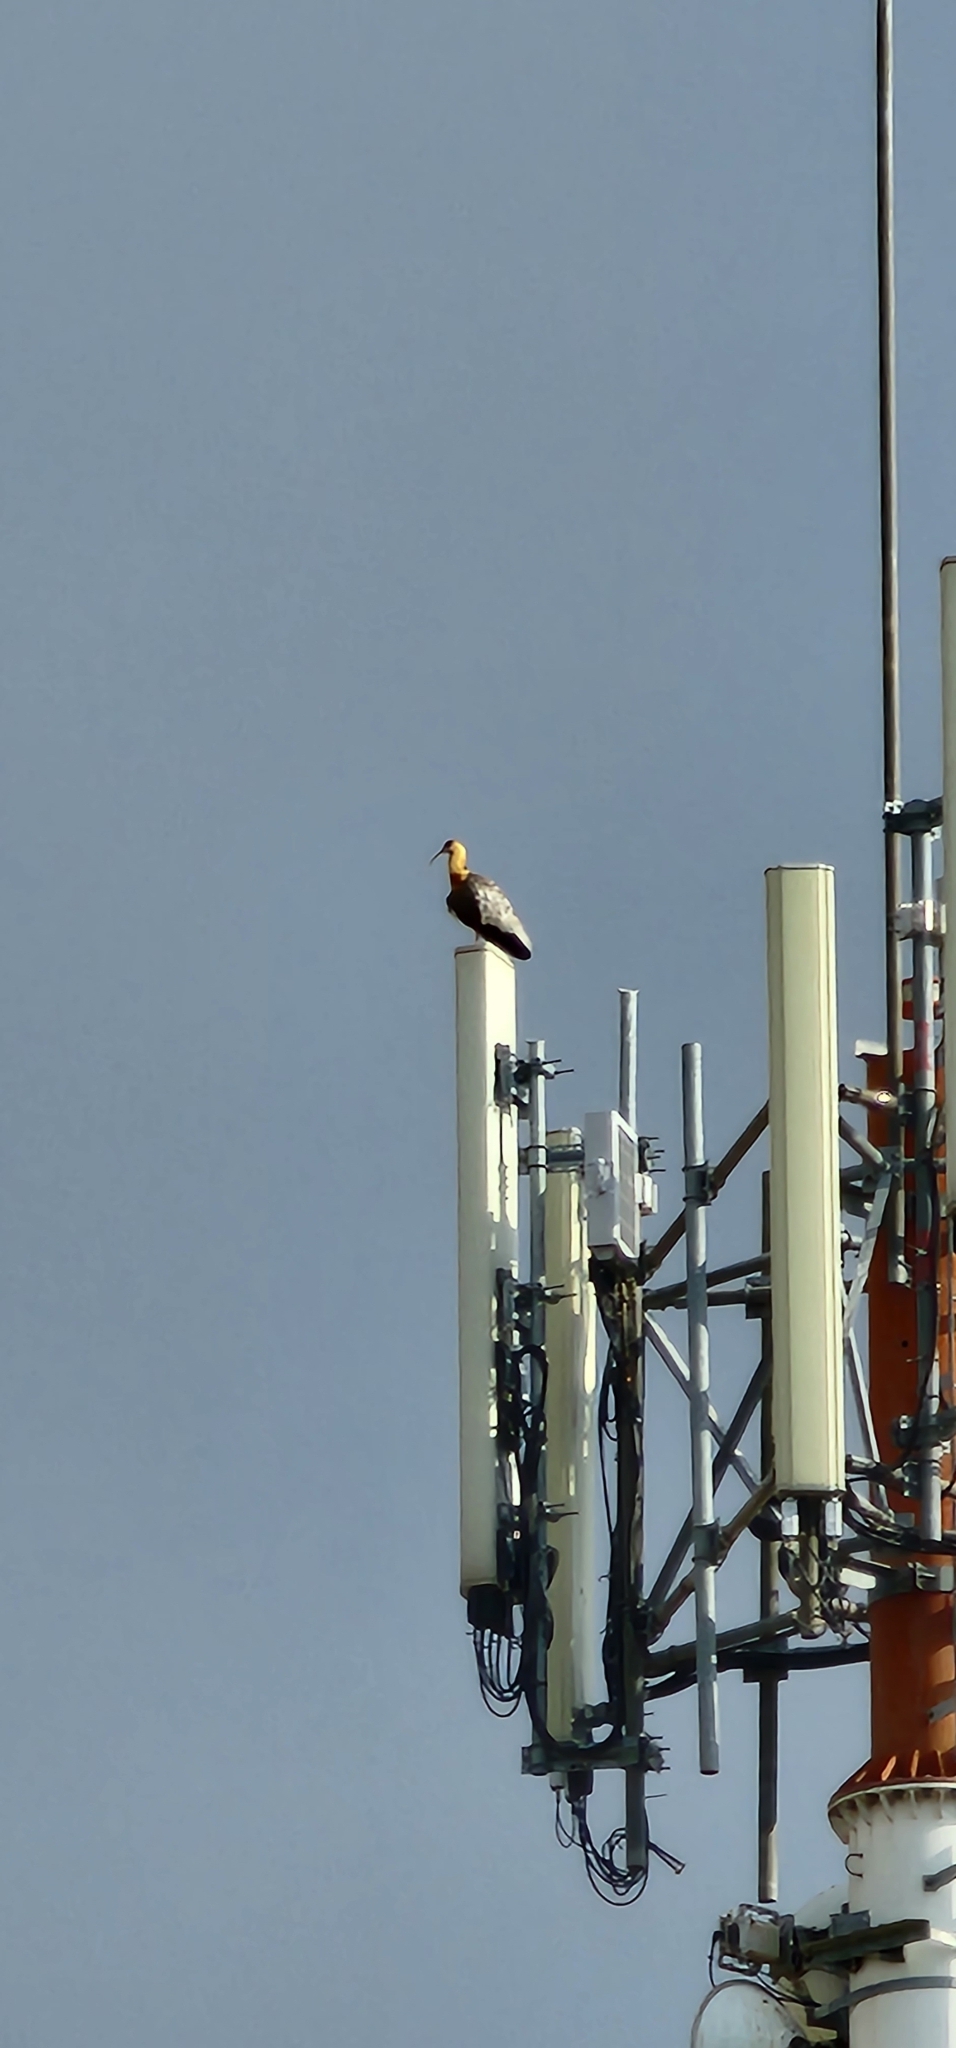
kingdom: Animalia
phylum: Chordata
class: Aves
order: Pelecaniformes
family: Threskiornithidae
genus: Theristicus
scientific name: Theristicus caudatus
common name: Buff-necked ibis
